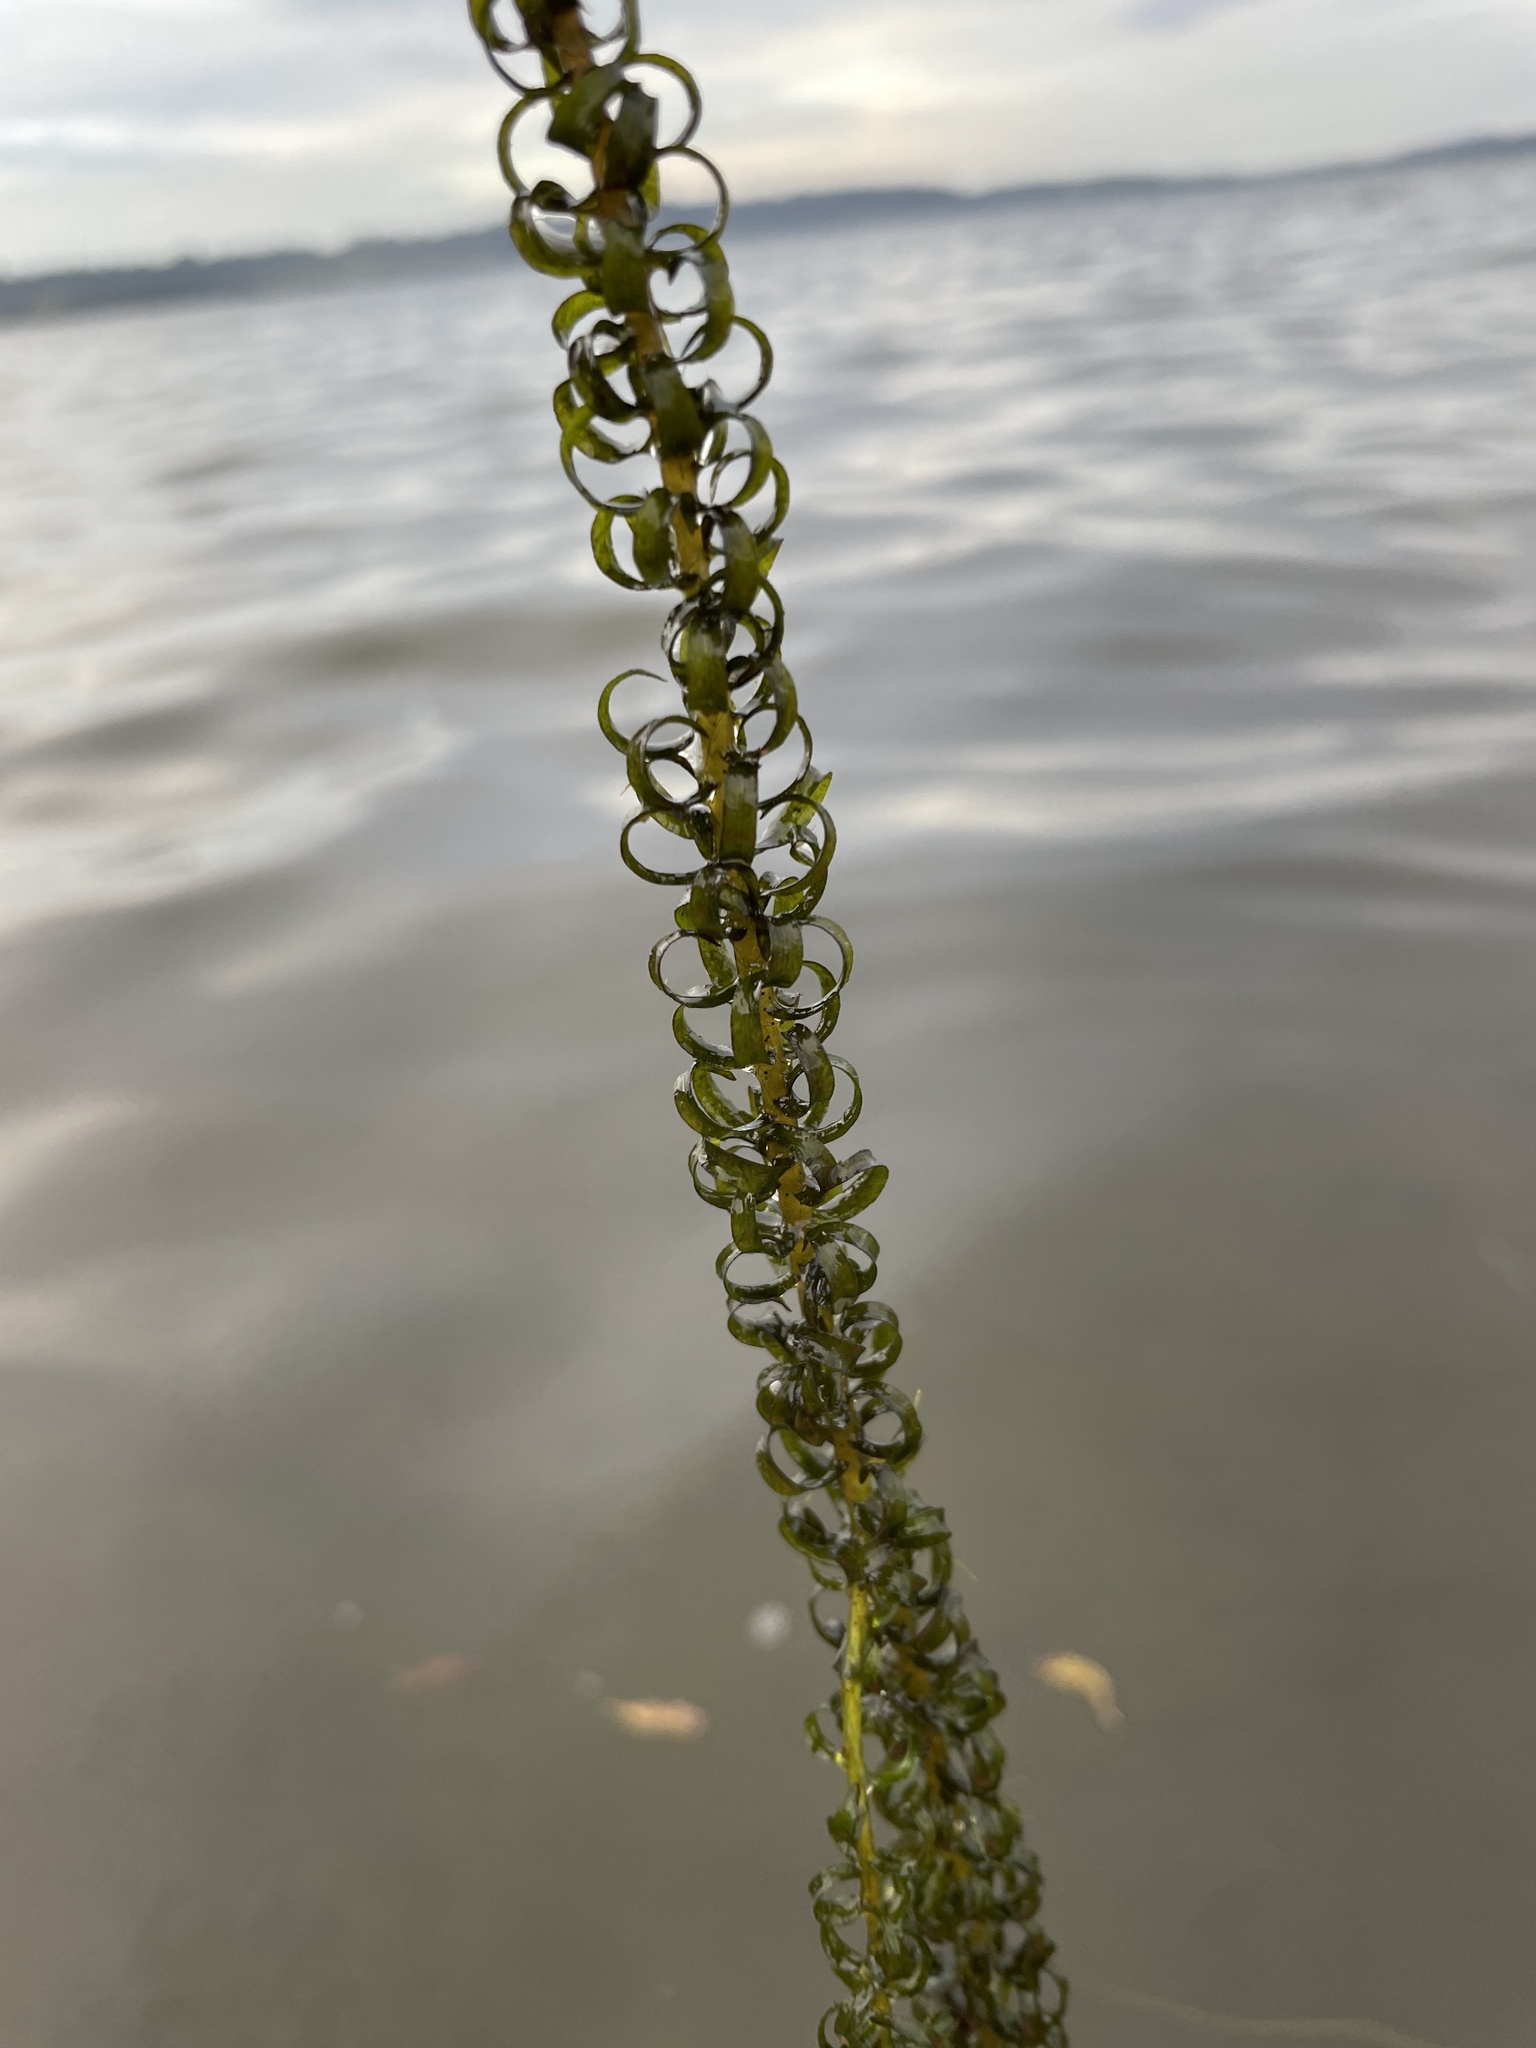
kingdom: Plantae
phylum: Tracheophyta
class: Liliopsida
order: Alismatales
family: Hydrocharitaceae
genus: Lagarosiphon
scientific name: Lagarosiphon major
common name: Curly waterweed
